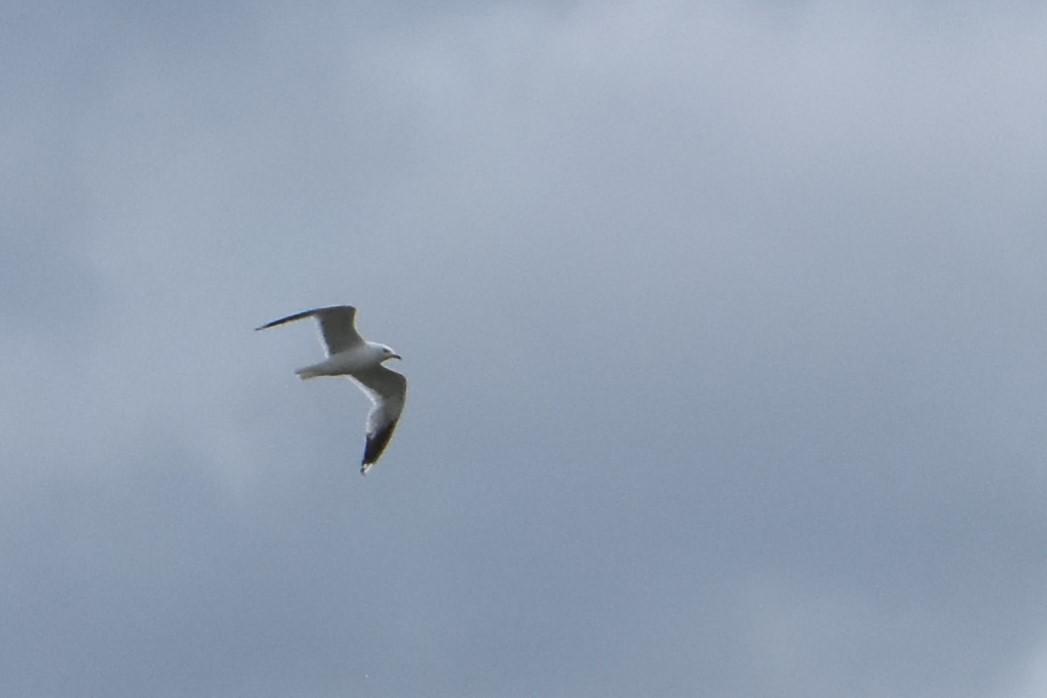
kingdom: Animalia
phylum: Chordata
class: Aves
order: Charadriiformes
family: Laridae
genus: Larus
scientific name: Larus canus
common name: Mew gull
